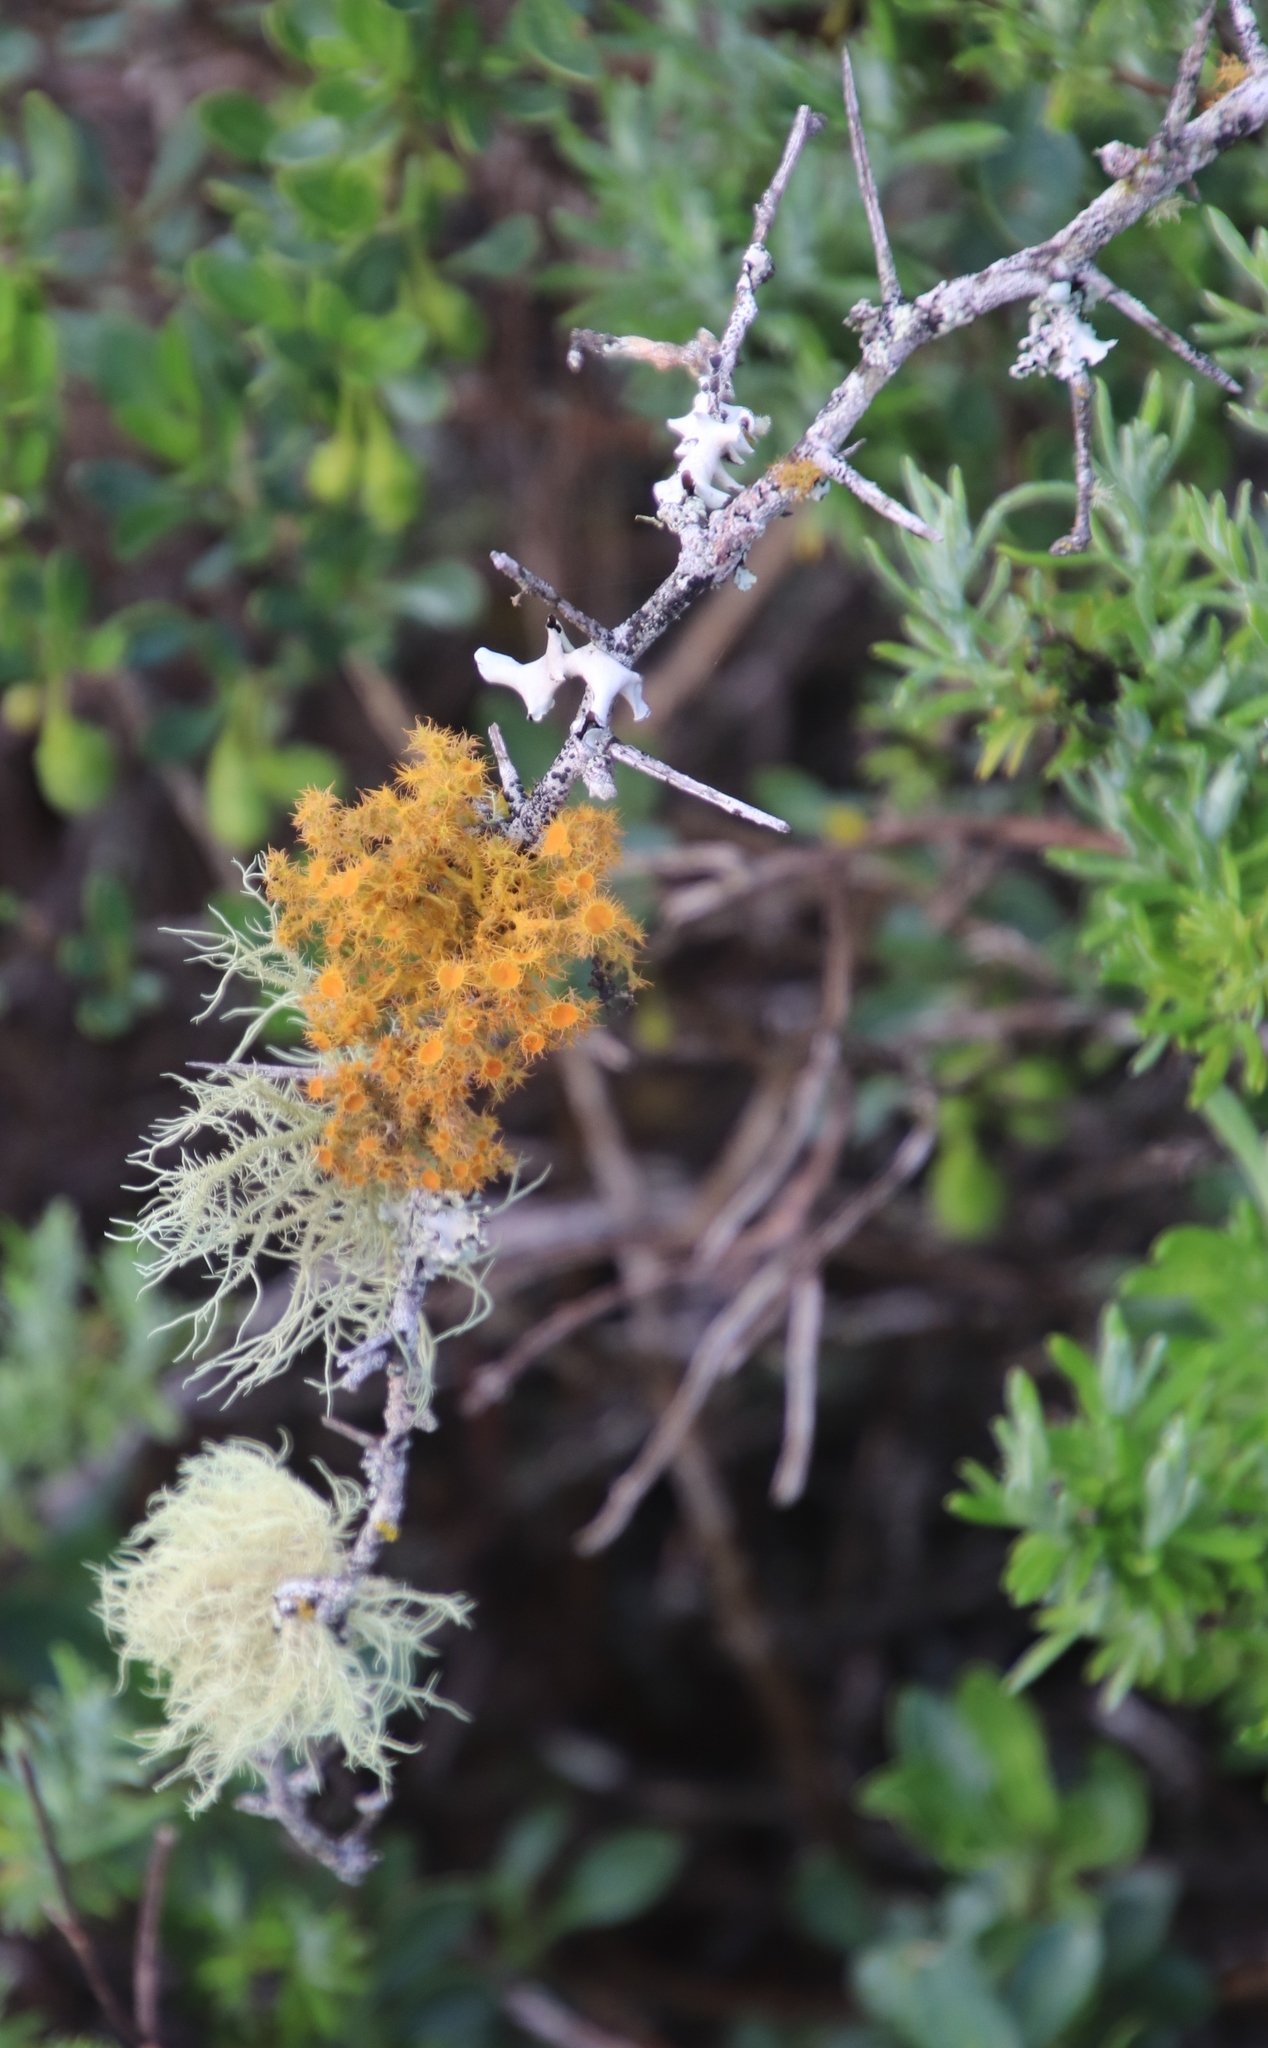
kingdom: Fungi
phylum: Ascomycota
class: Lecanoromycetes
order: Teloschistales
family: Teloschistaceae
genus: Teloschistes
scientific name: Teloschistes puber
